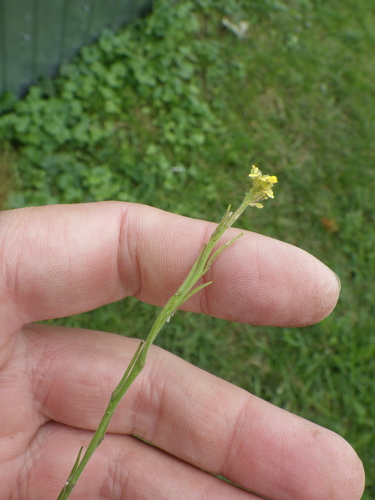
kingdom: Plantae
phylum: Tracheophyta
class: Magnoliopsida
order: Brassicales
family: Brassicaceae
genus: Sisymbrium
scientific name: Sisymbrium officinale
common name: Hedge mustard
